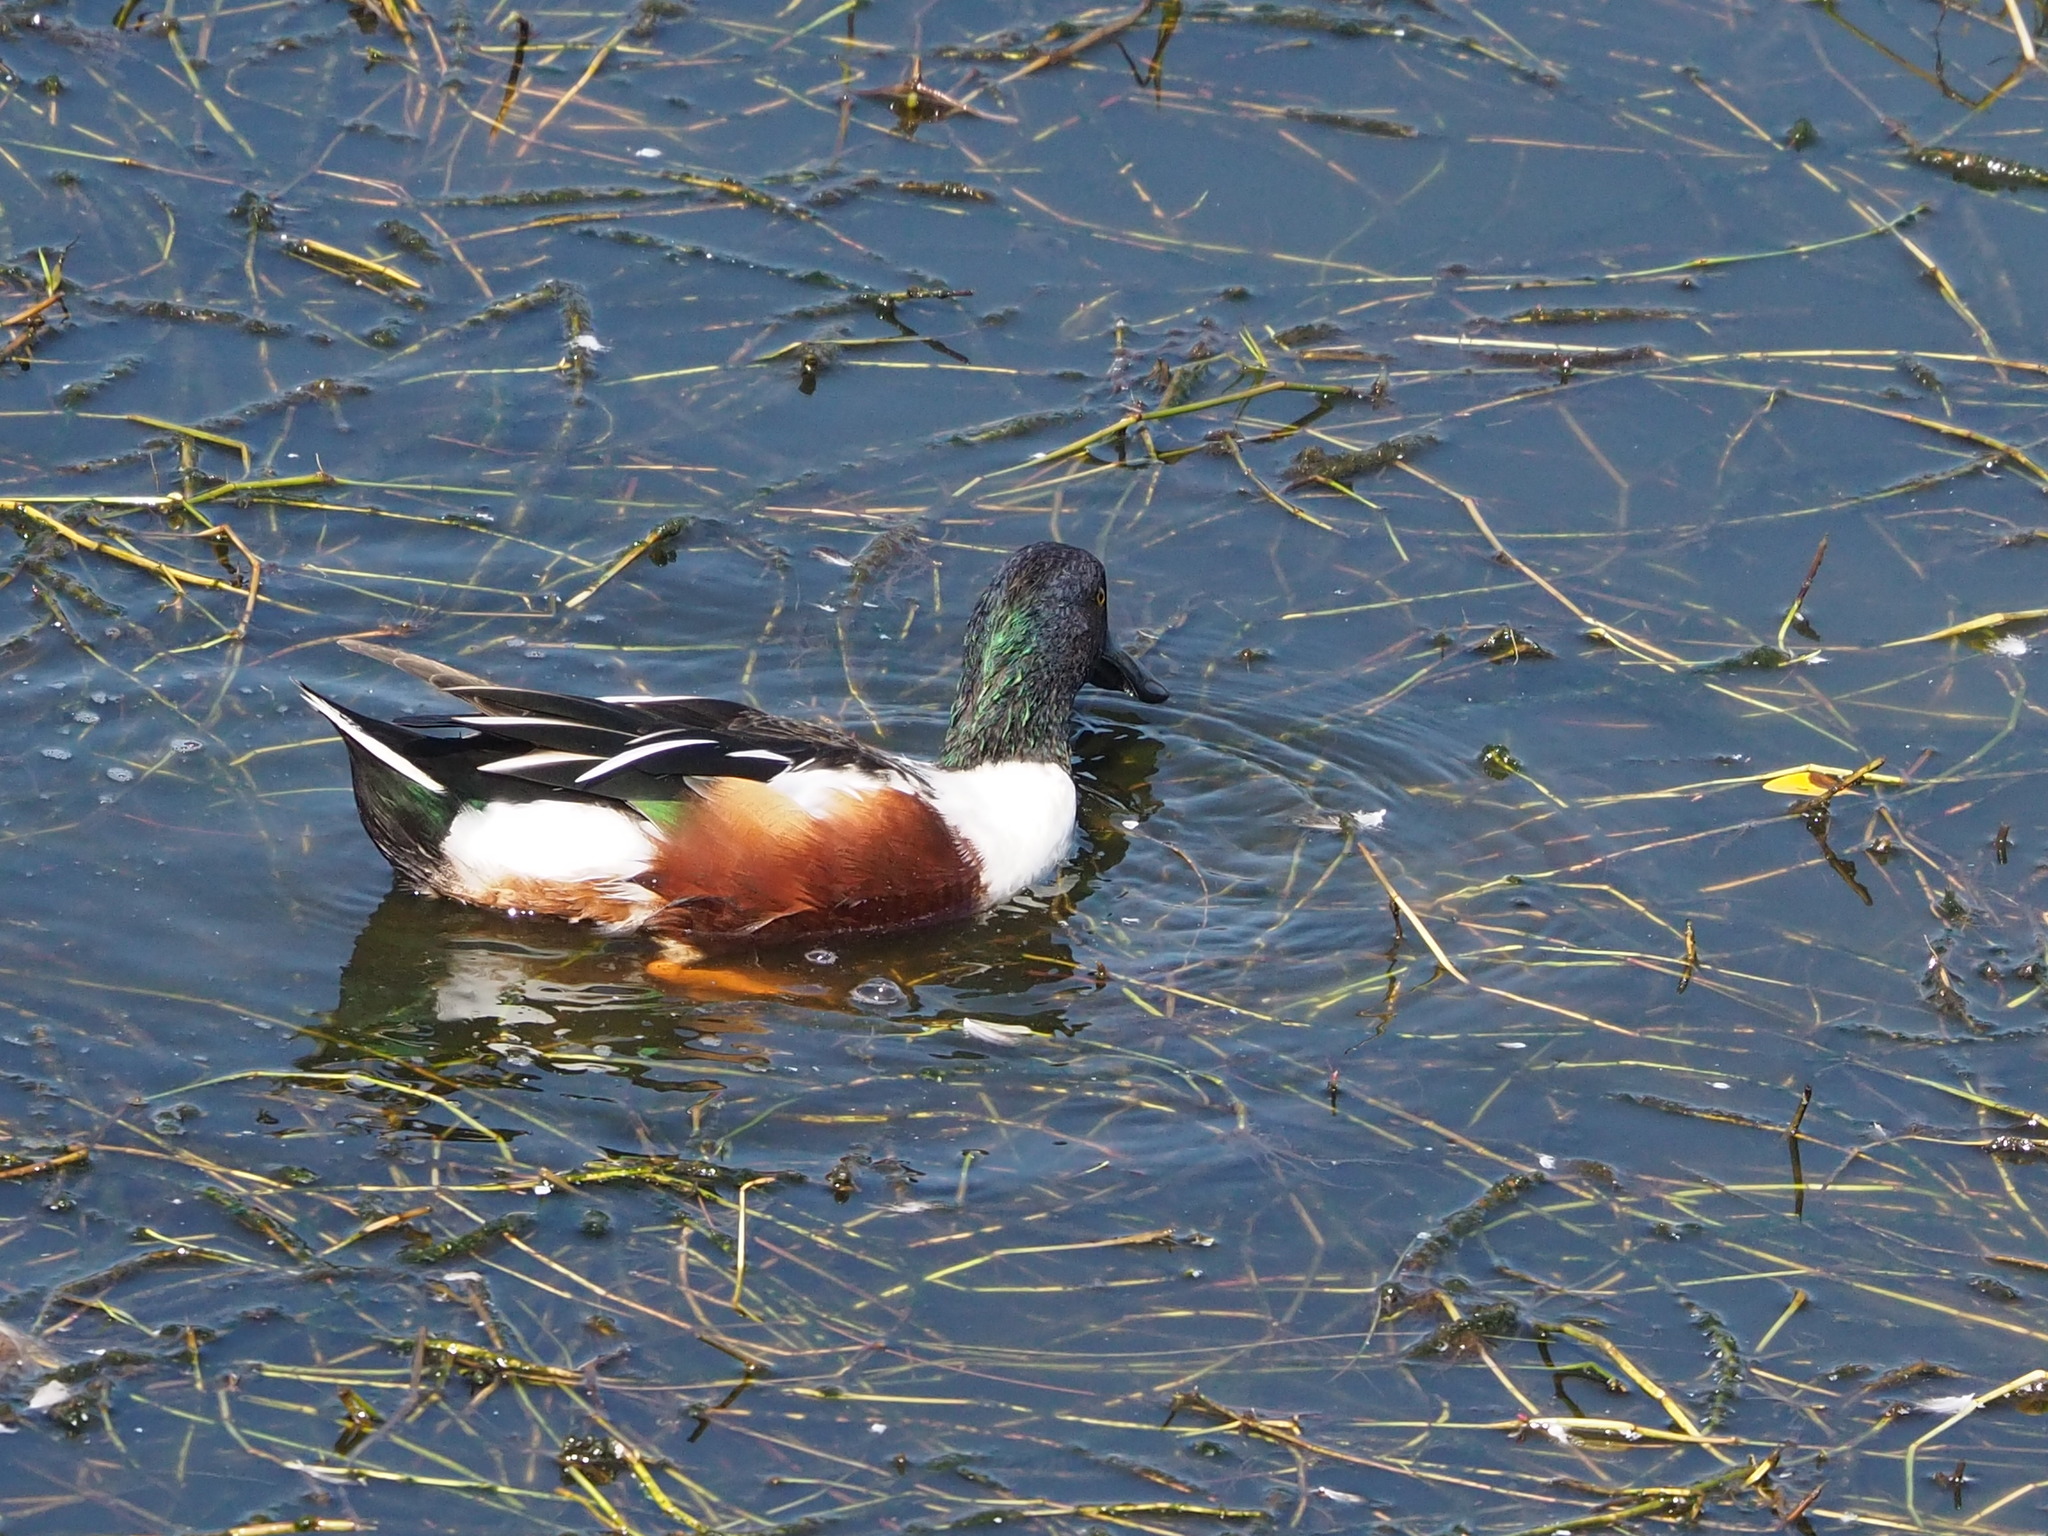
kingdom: Animalia
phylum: Chordata
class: Aves
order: Anseriformes
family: Anatidae
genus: Spatula
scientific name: Spatula clypeata
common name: Northern shoveler
